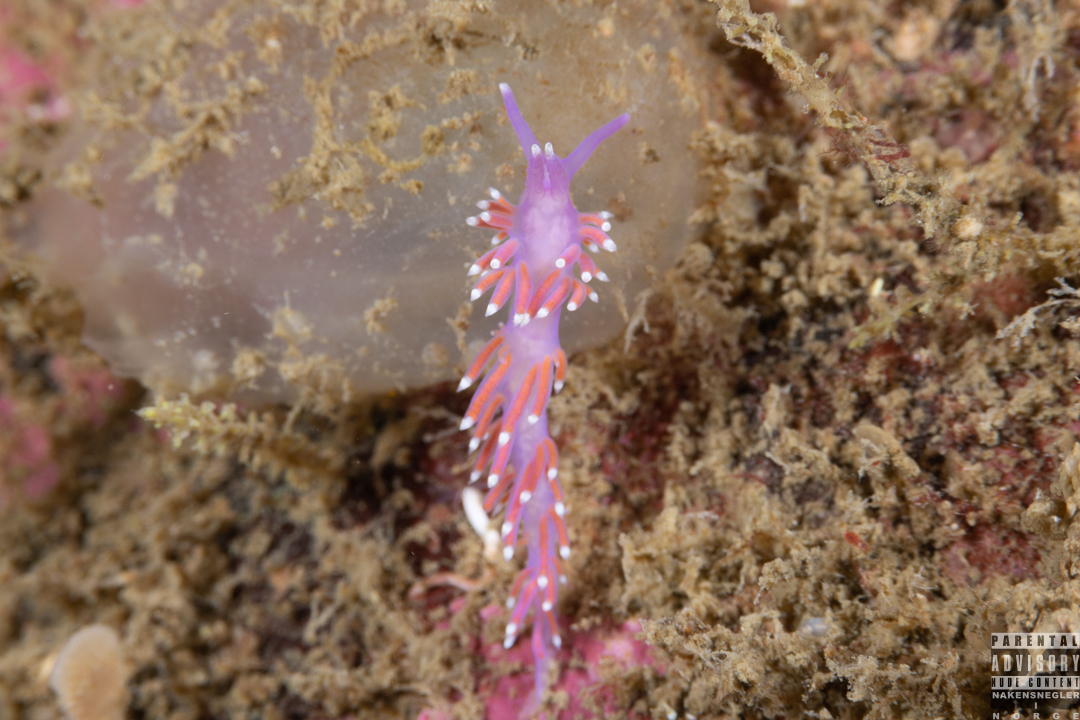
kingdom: Animalia
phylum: Mollusca
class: Gastropoda
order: Nudibranchia
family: Flabellinidae
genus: Edmundsella
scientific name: Edmundsella pedata
